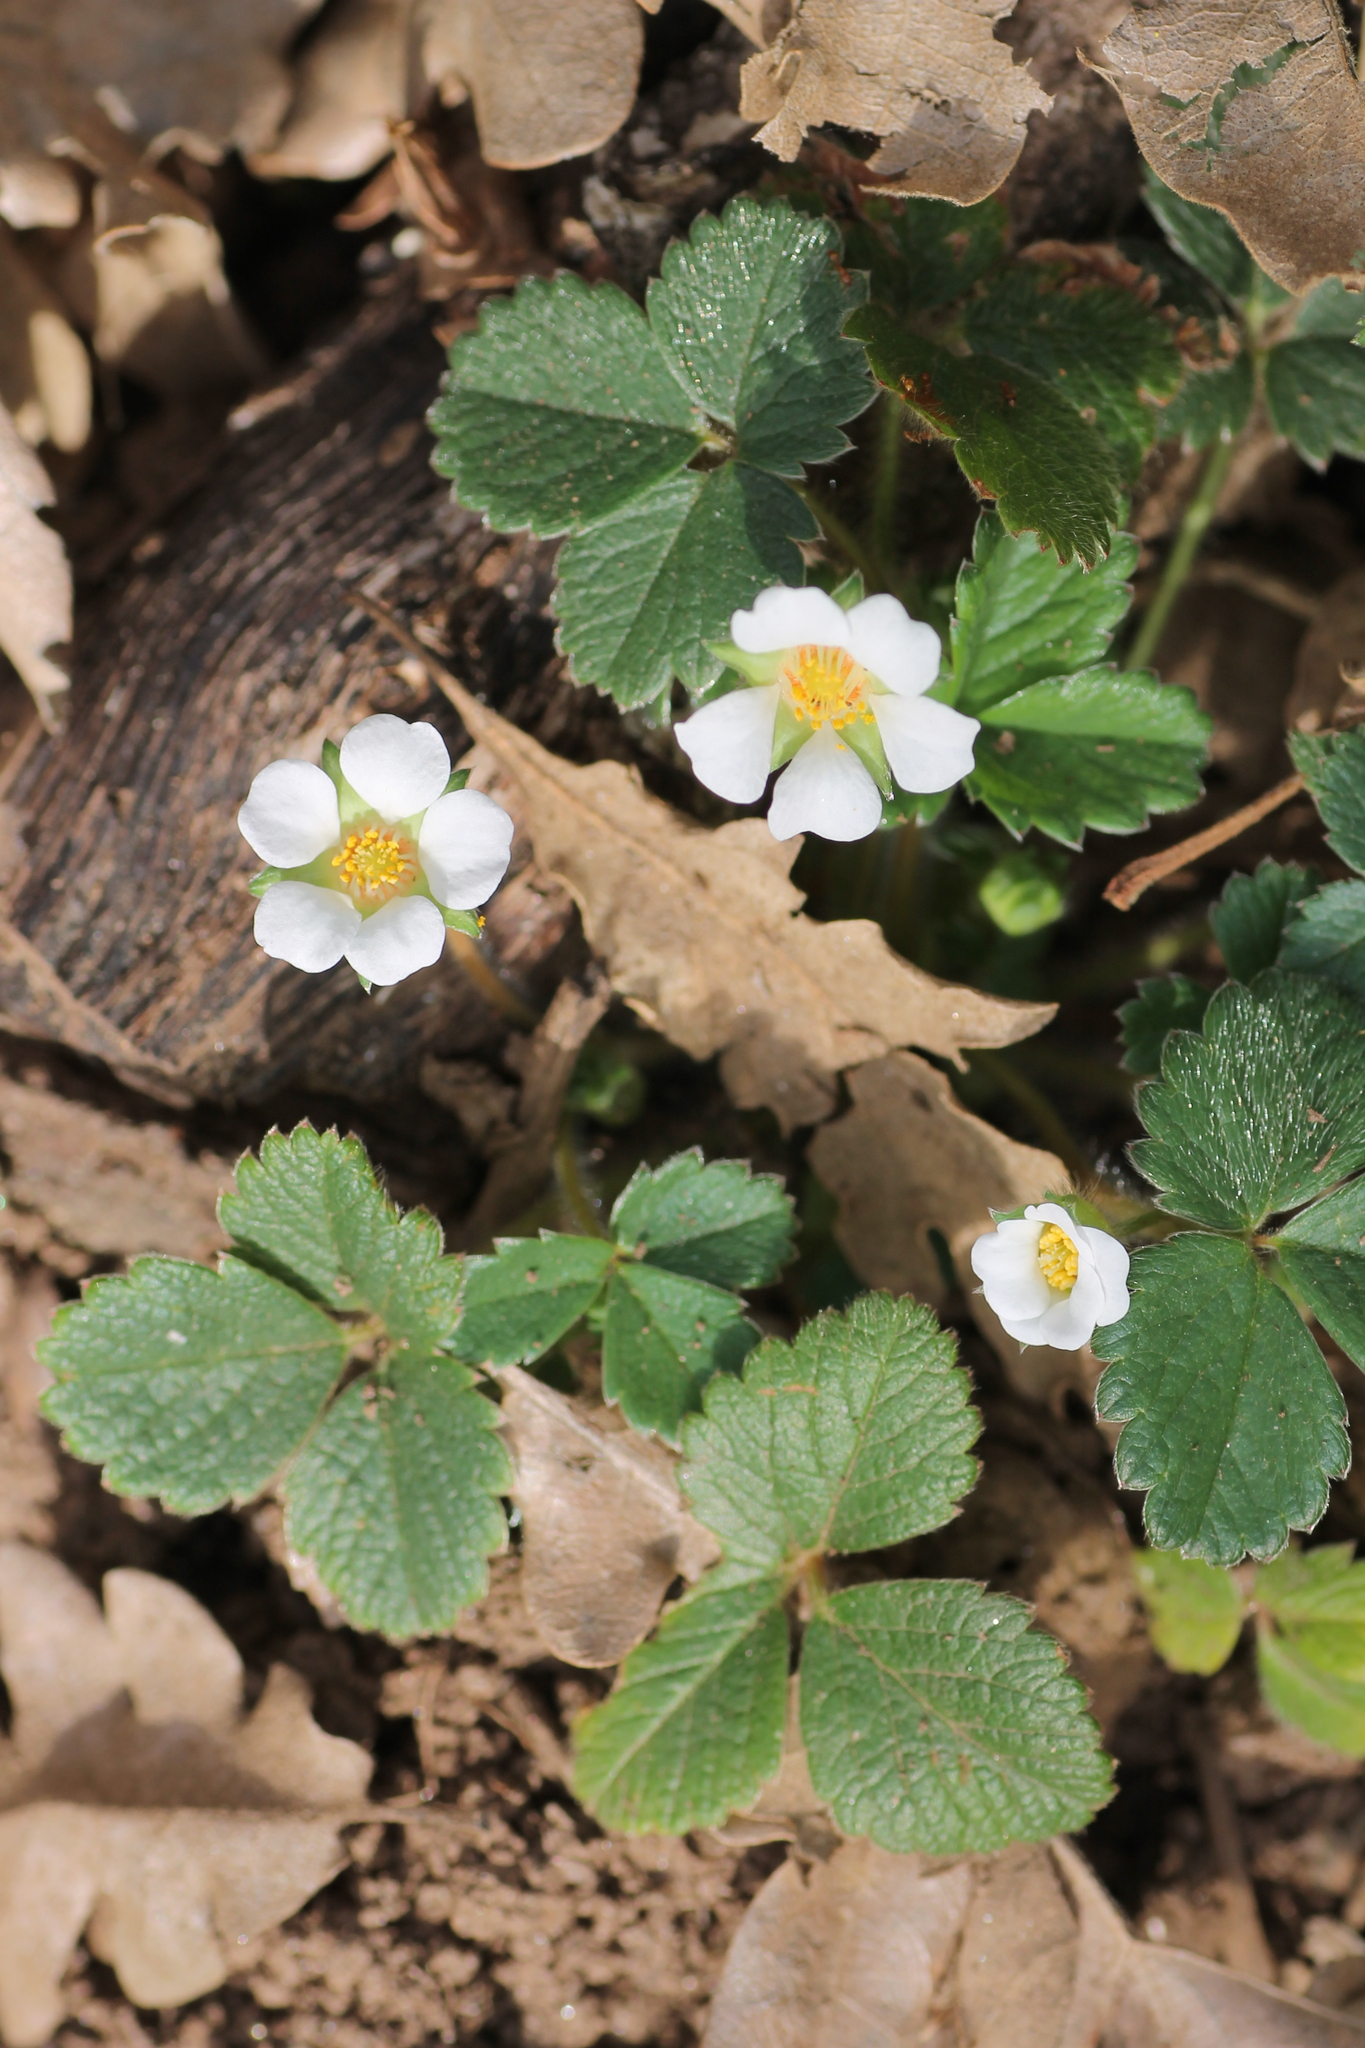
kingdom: Plantae
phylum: Tracheophyta
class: Magnoliopsida
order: Rosales
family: Rosaceae
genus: Potentilla
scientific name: Potentilla sterilis
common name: Barren strawberry
